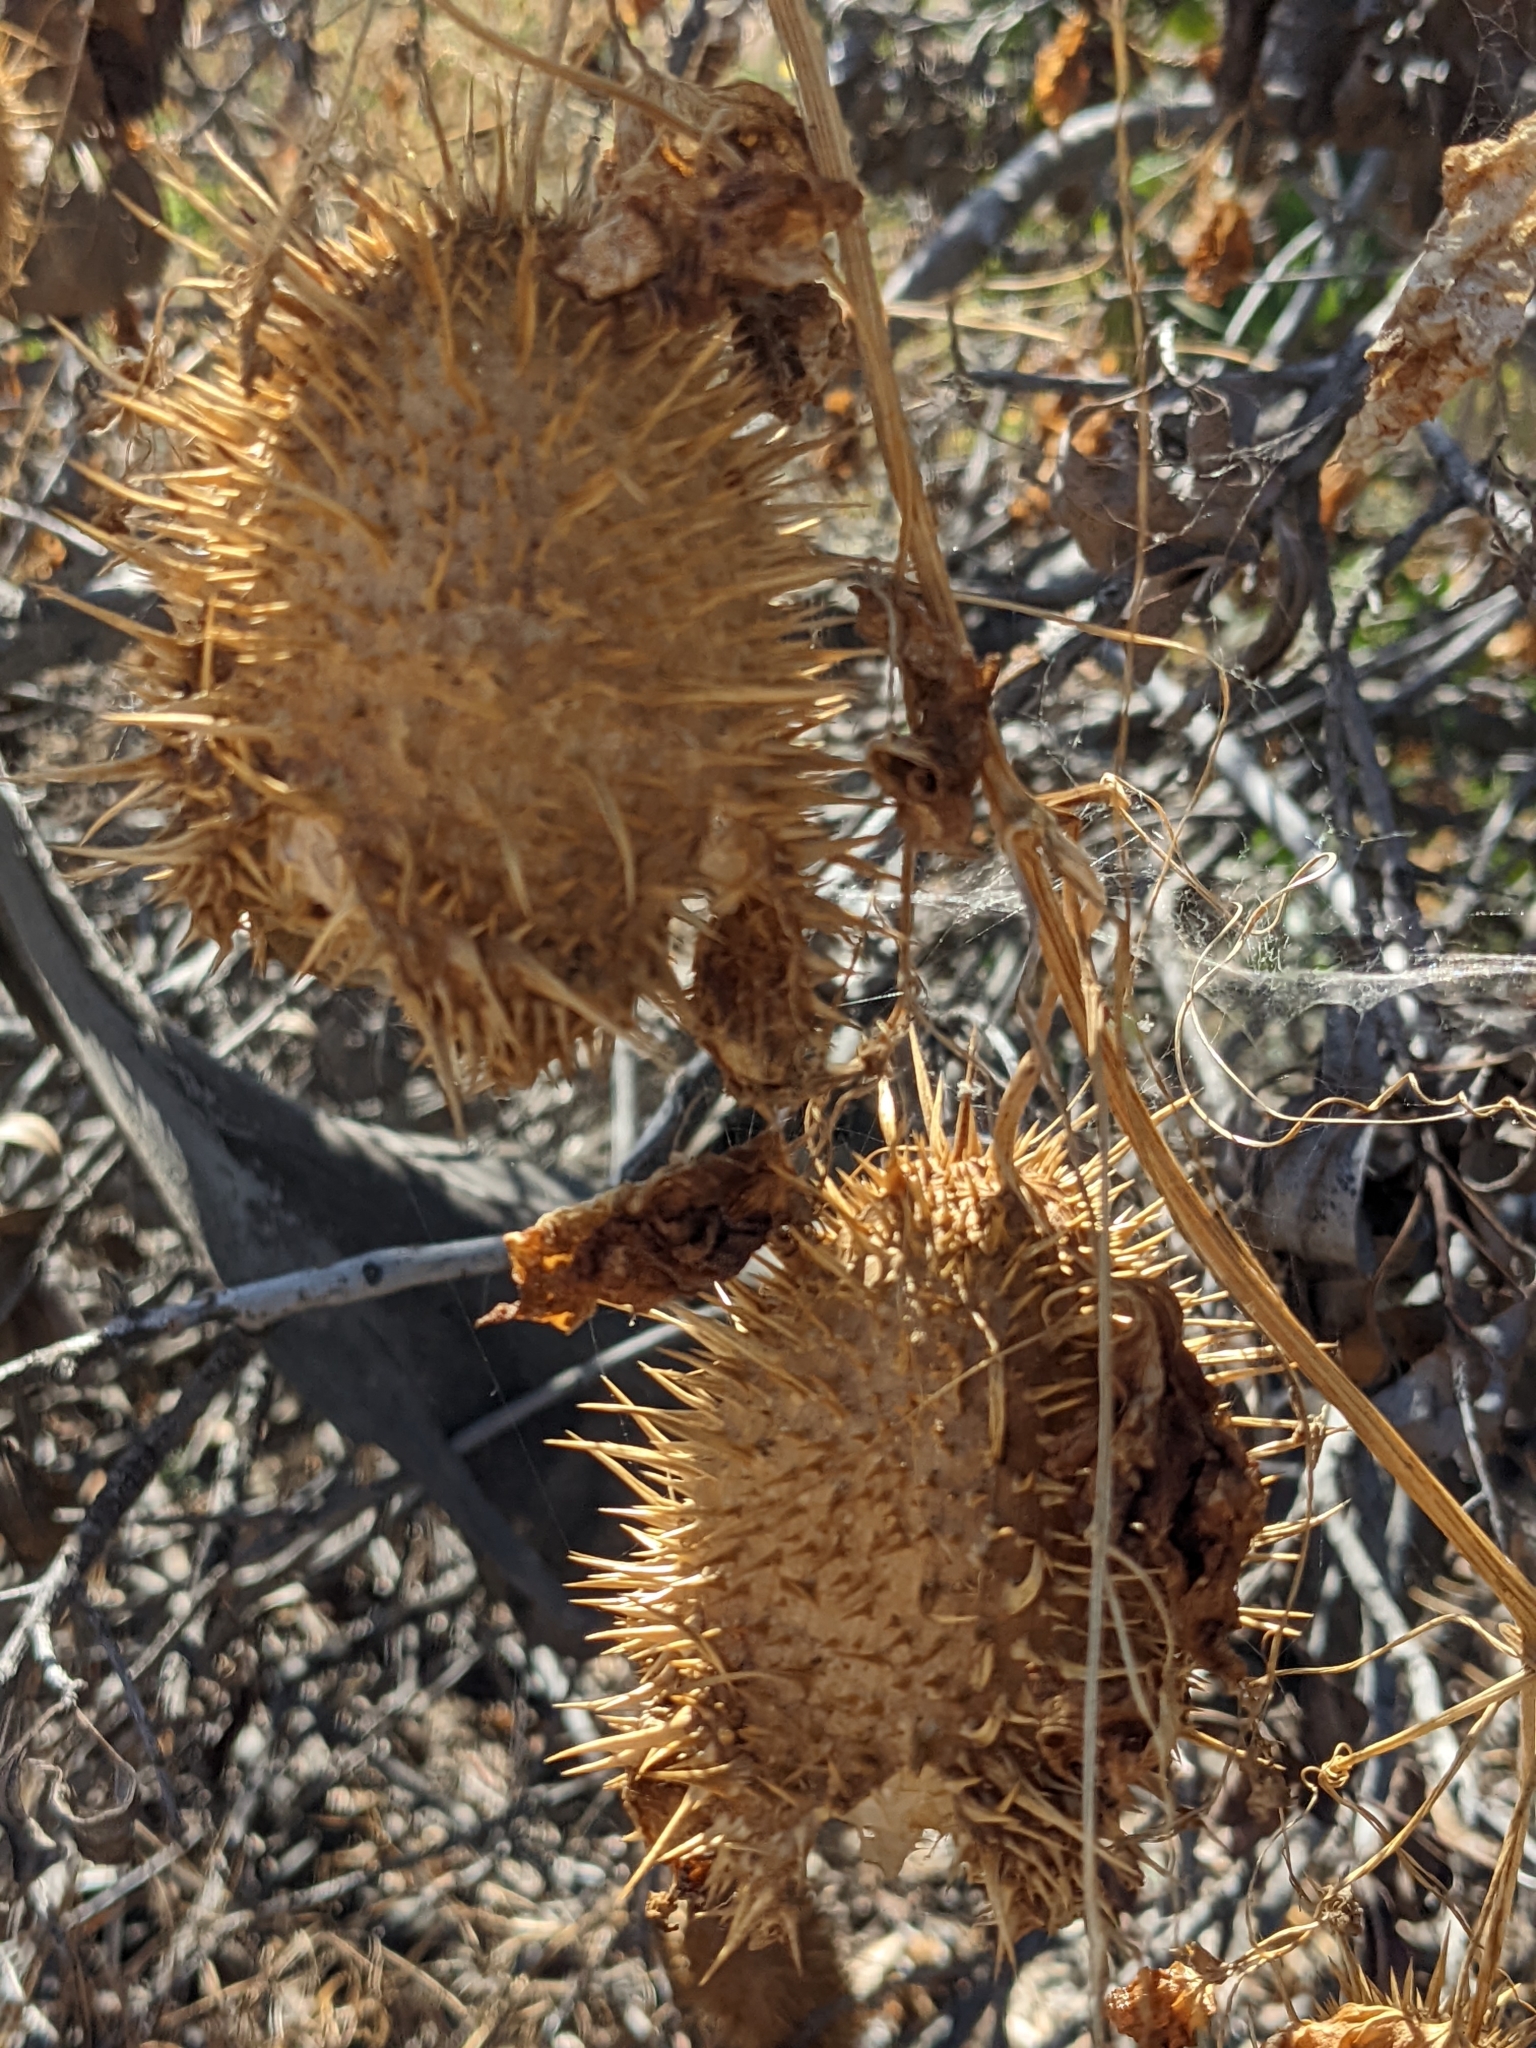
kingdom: Plantae
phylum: Tracheophyta
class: Magnoliopsida
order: Cucurbitales
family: Cucurbitaceae
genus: Marah
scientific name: Marah macrocarpa
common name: Cucamonga manroot
